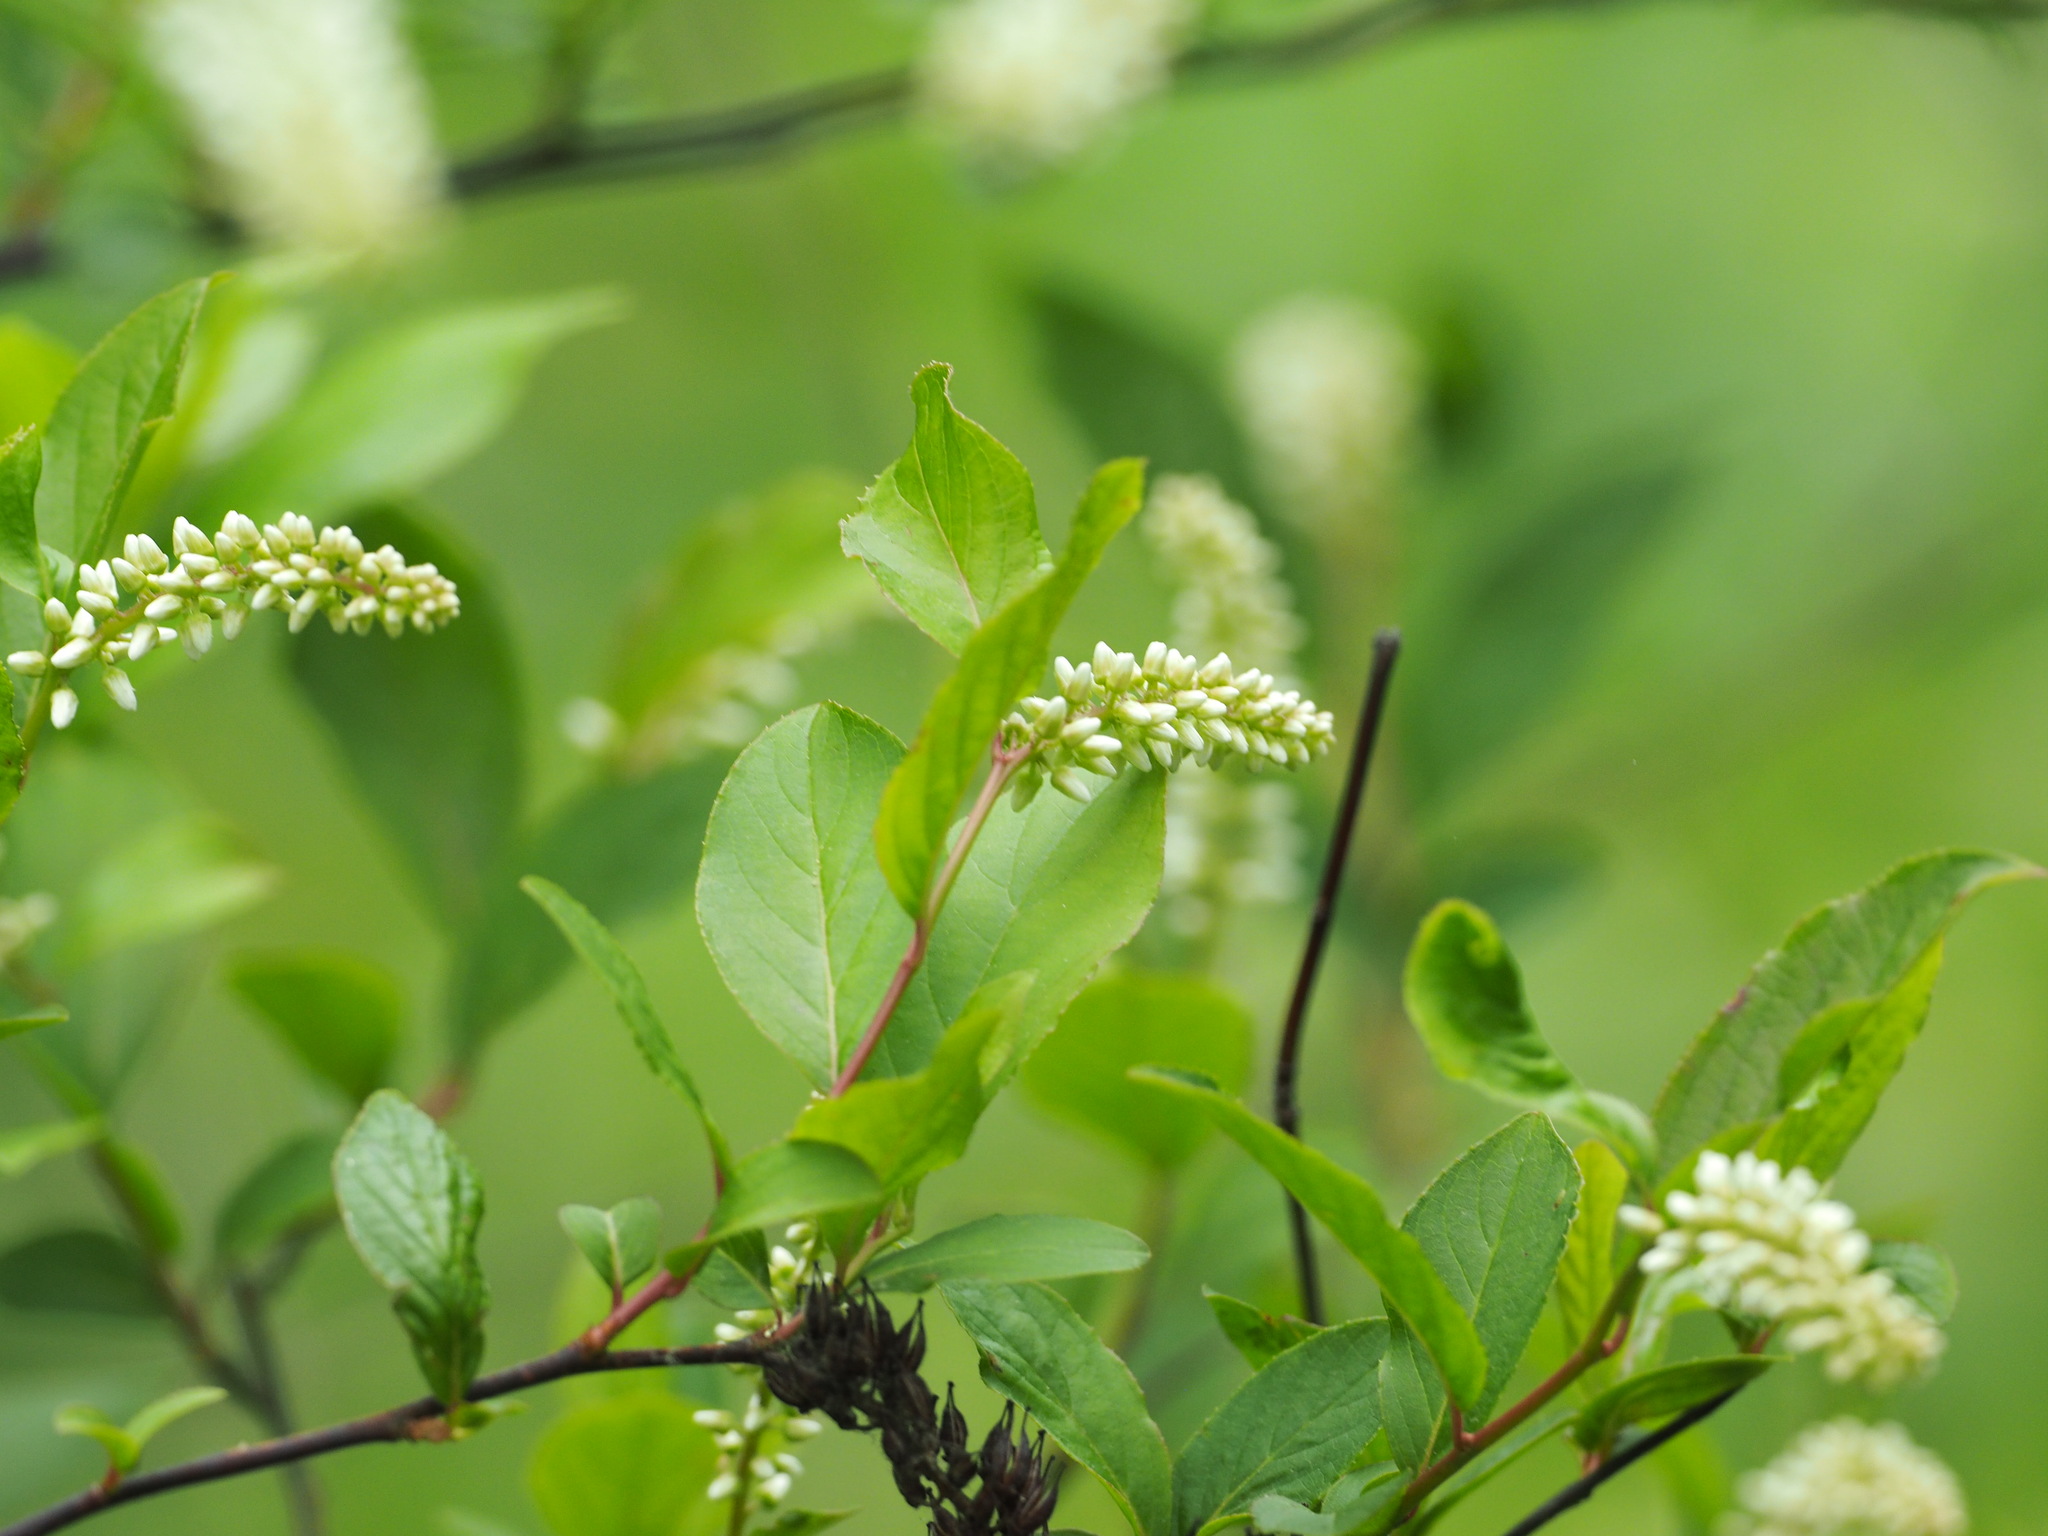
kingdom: Plantae
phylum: Tracheophyta
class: Magnoliopsida
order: Saxifragales
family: Iteaceae
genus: Itea
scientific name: Itea virginica
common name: Sweetspire
